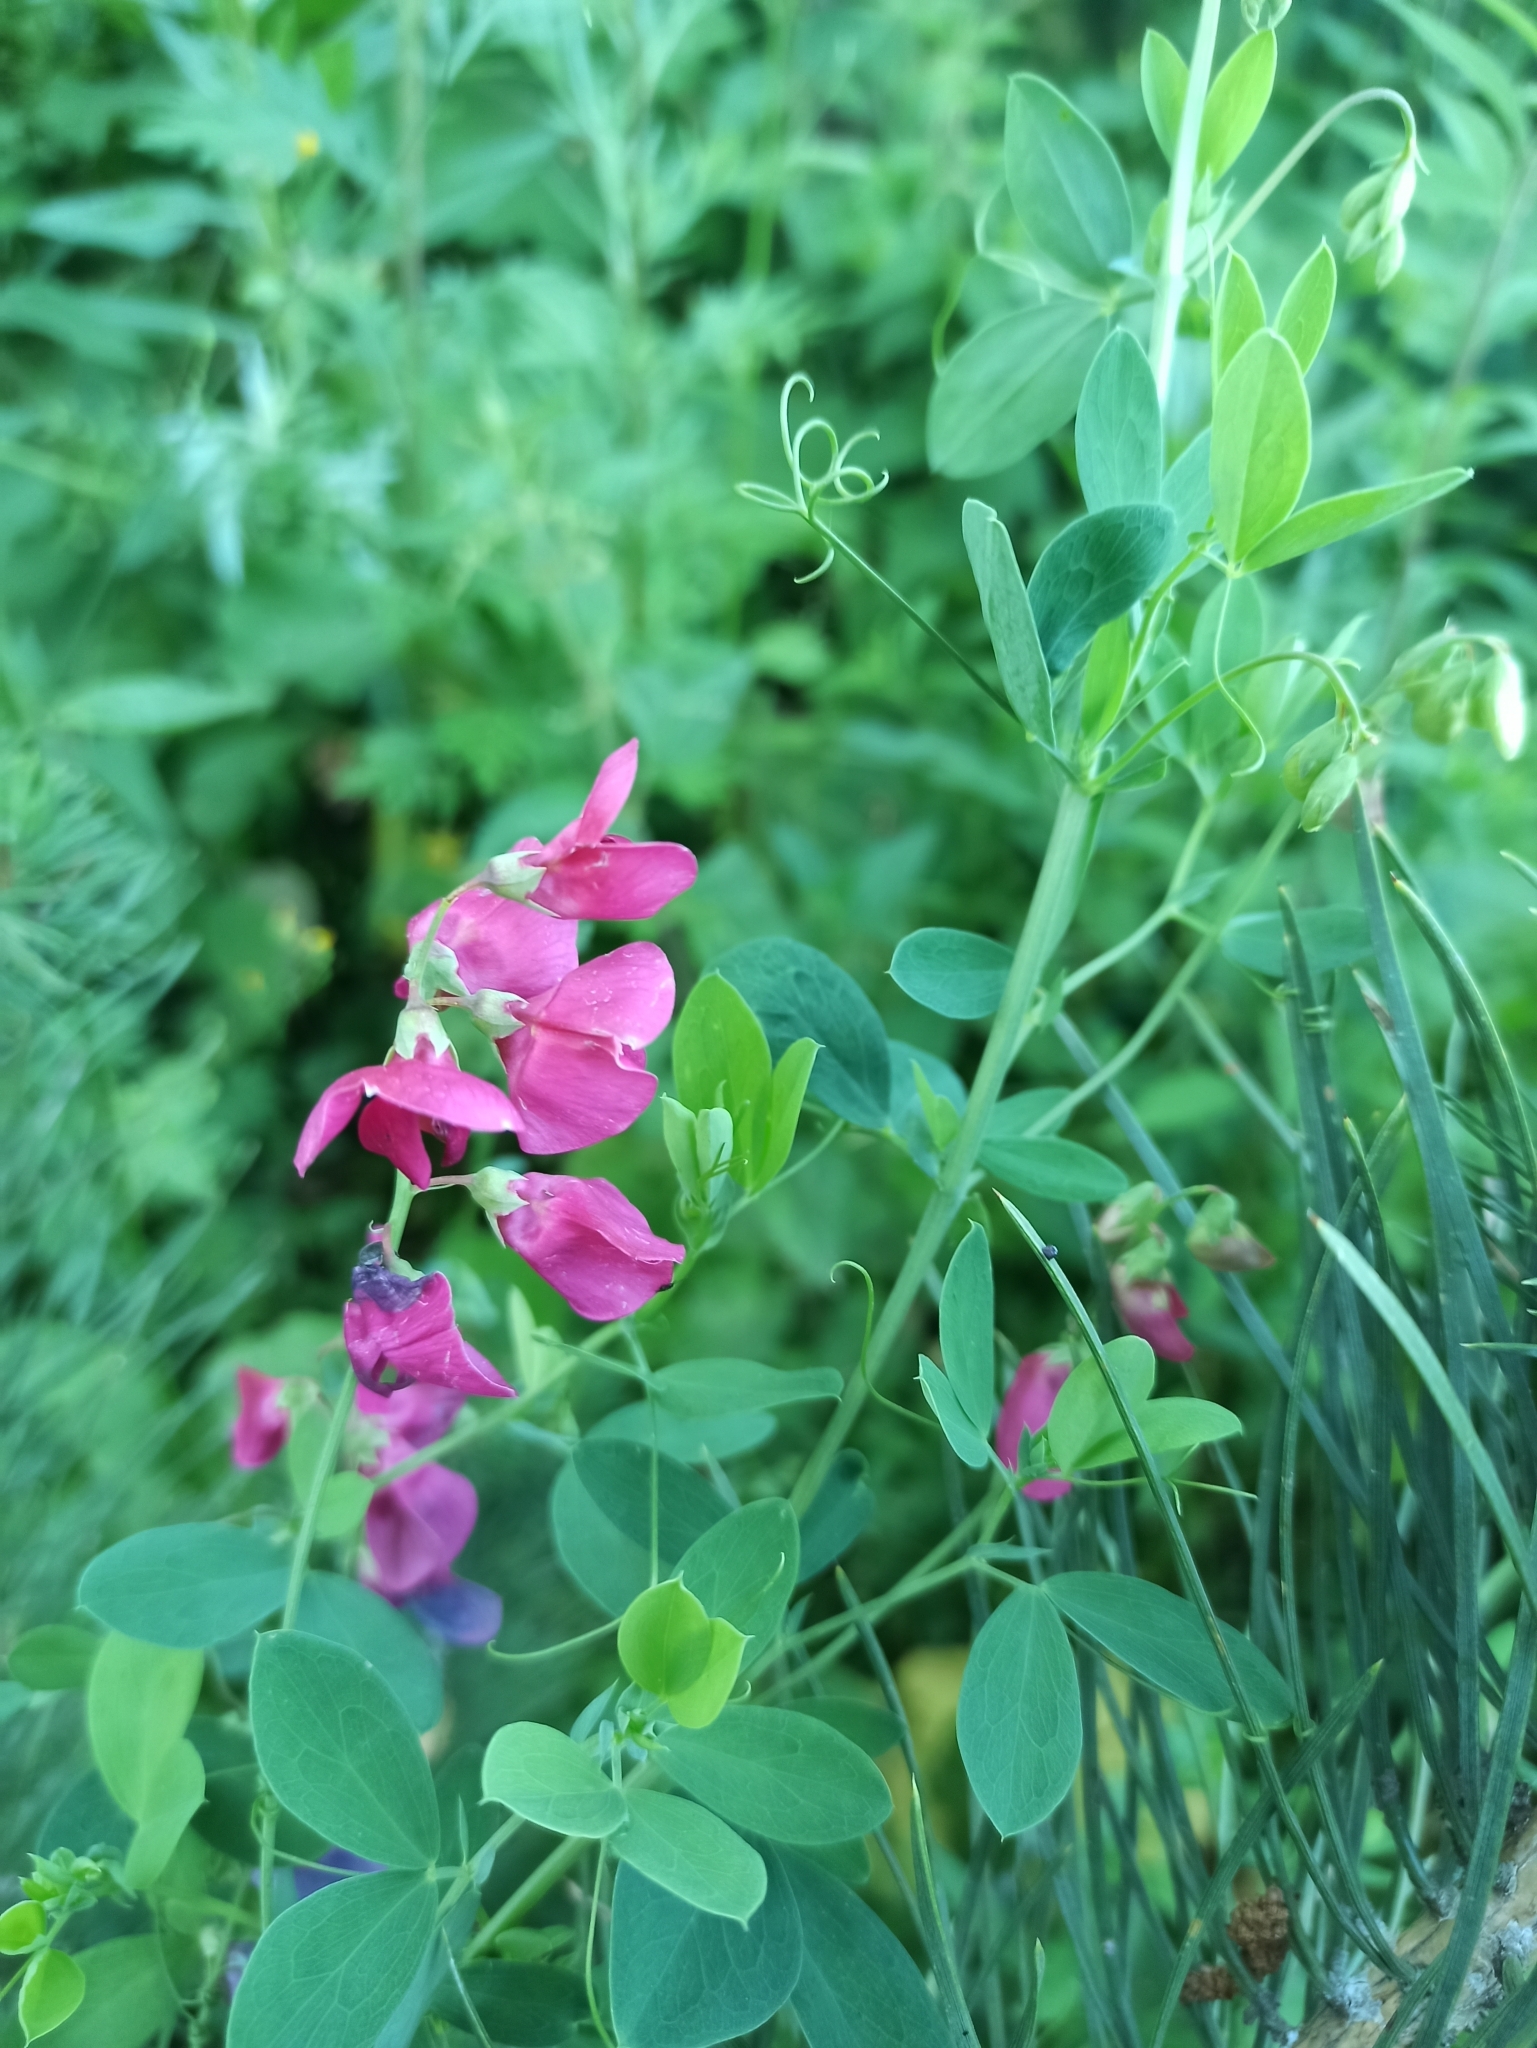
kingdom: Plantae
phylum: Tracheophyta
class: Magnoliopsida
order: Fabales
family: Fabaceae
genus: Lathyrus
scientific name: Lathyrus tuberosus
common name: Tuberous pea
